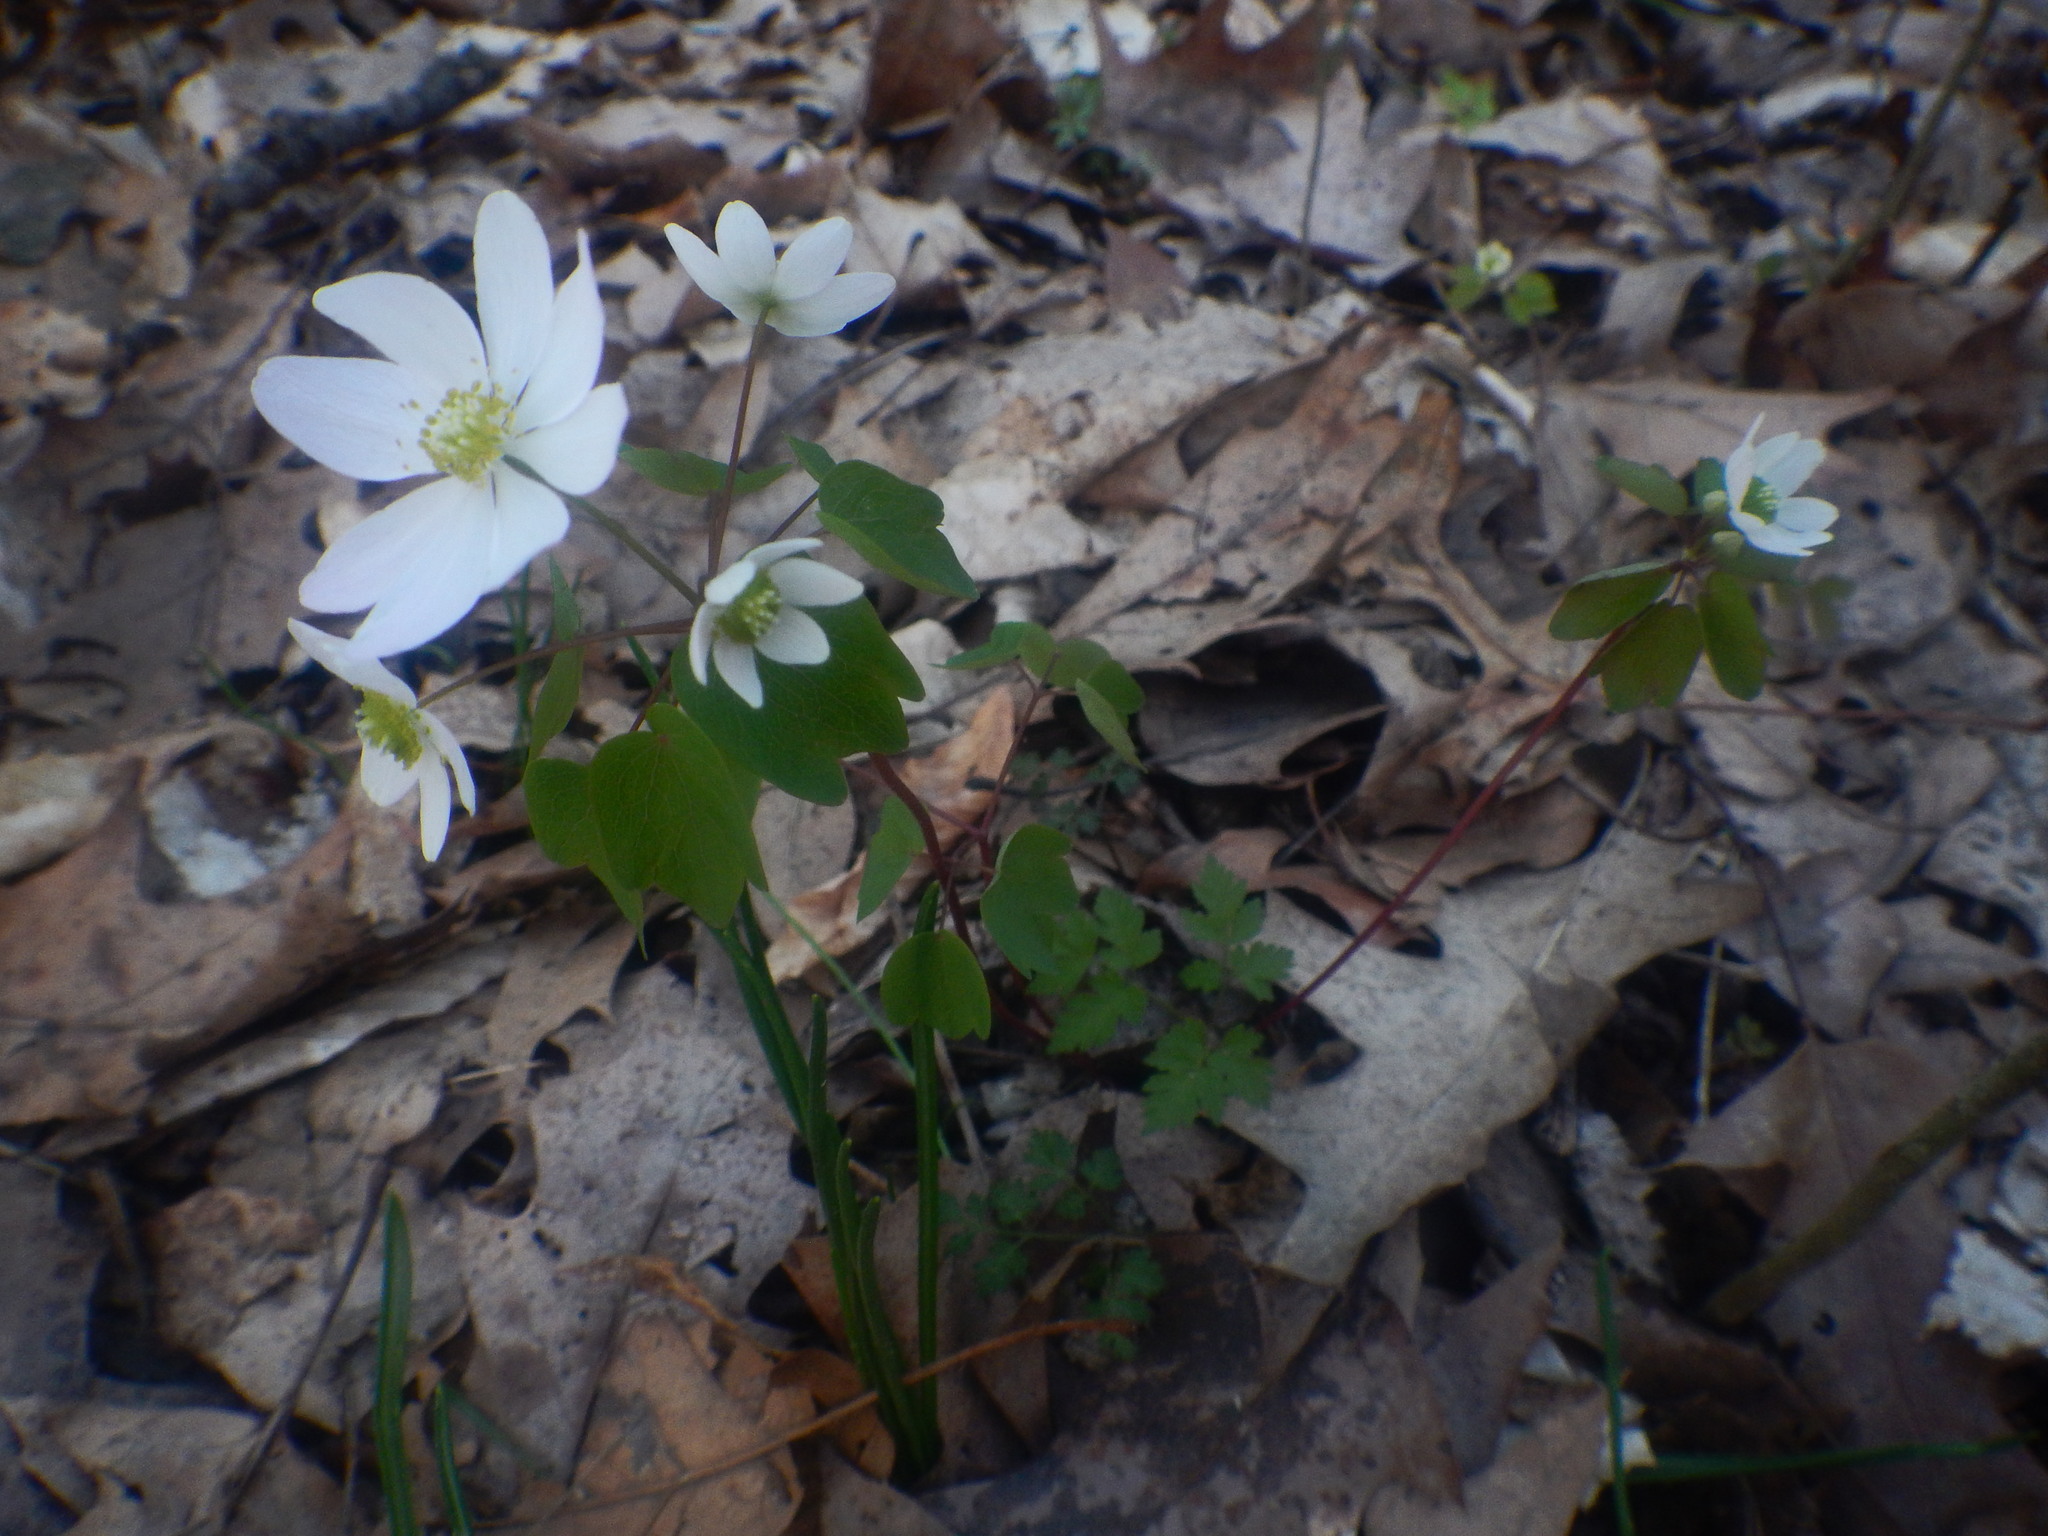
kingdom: Plantae
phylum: Tracheophyta
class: Magnoliopsida
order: Ranunculales
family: Ranunculaceae
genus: Thalictrum
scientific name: Thalictrum thalictroides
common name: Rue-anemone
